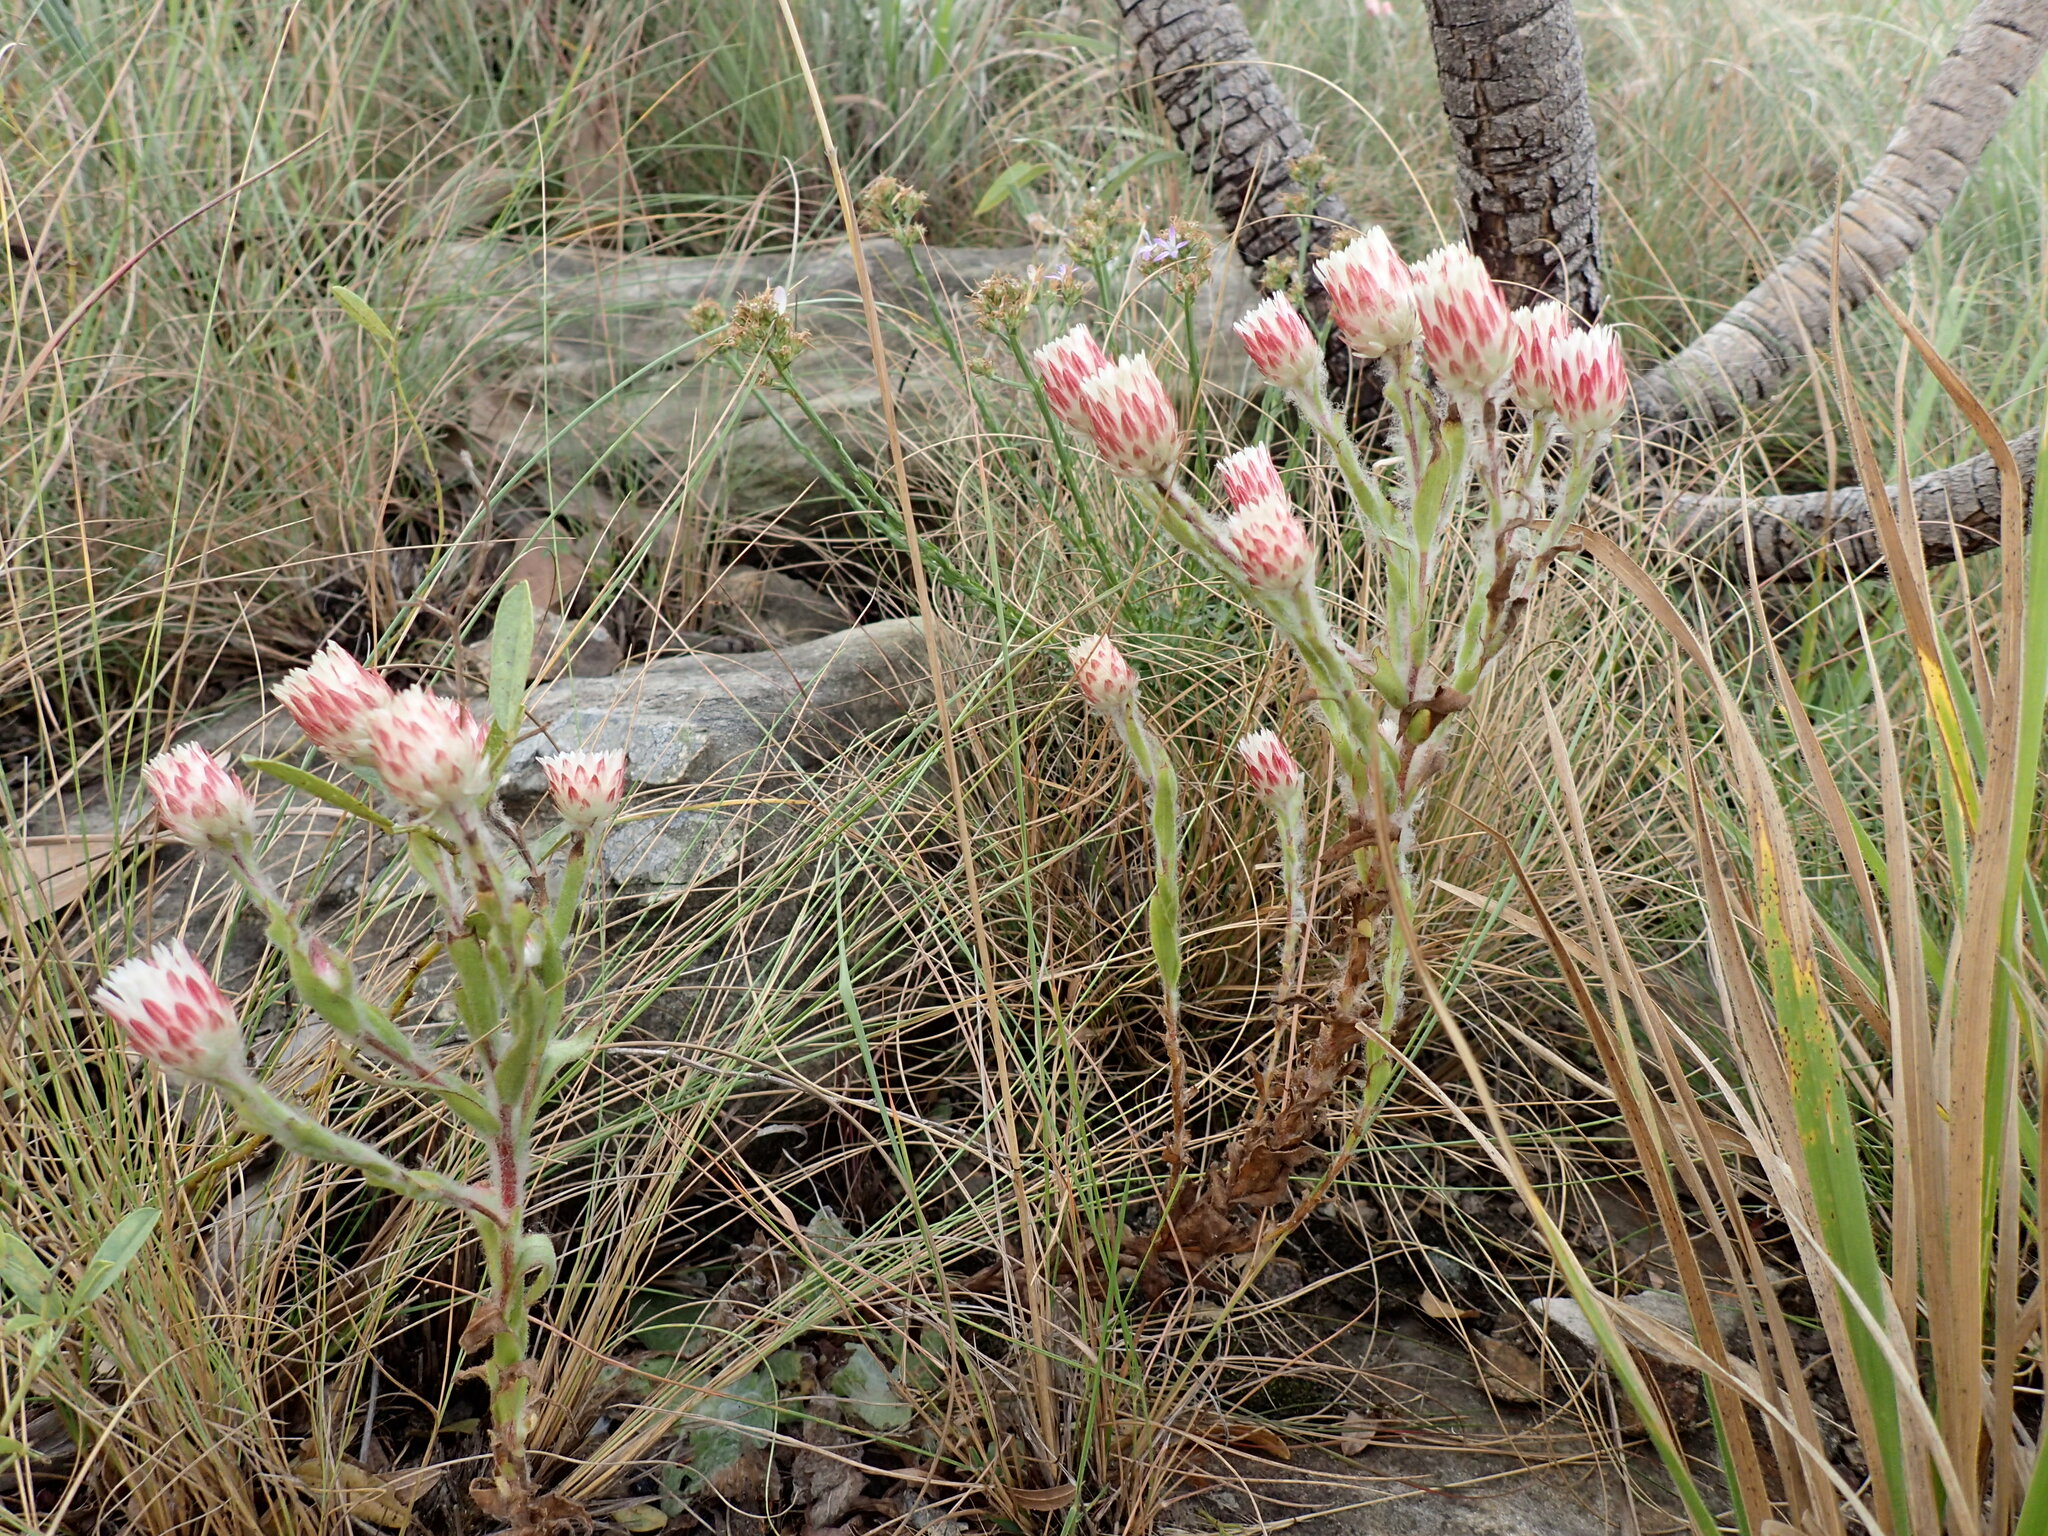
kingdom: Plantae
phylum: Tracheophyta
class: Magnoliopsida
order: Asterales
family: Asteraceae
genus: Helichrysum
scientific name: Helichrysum adenocarpum
